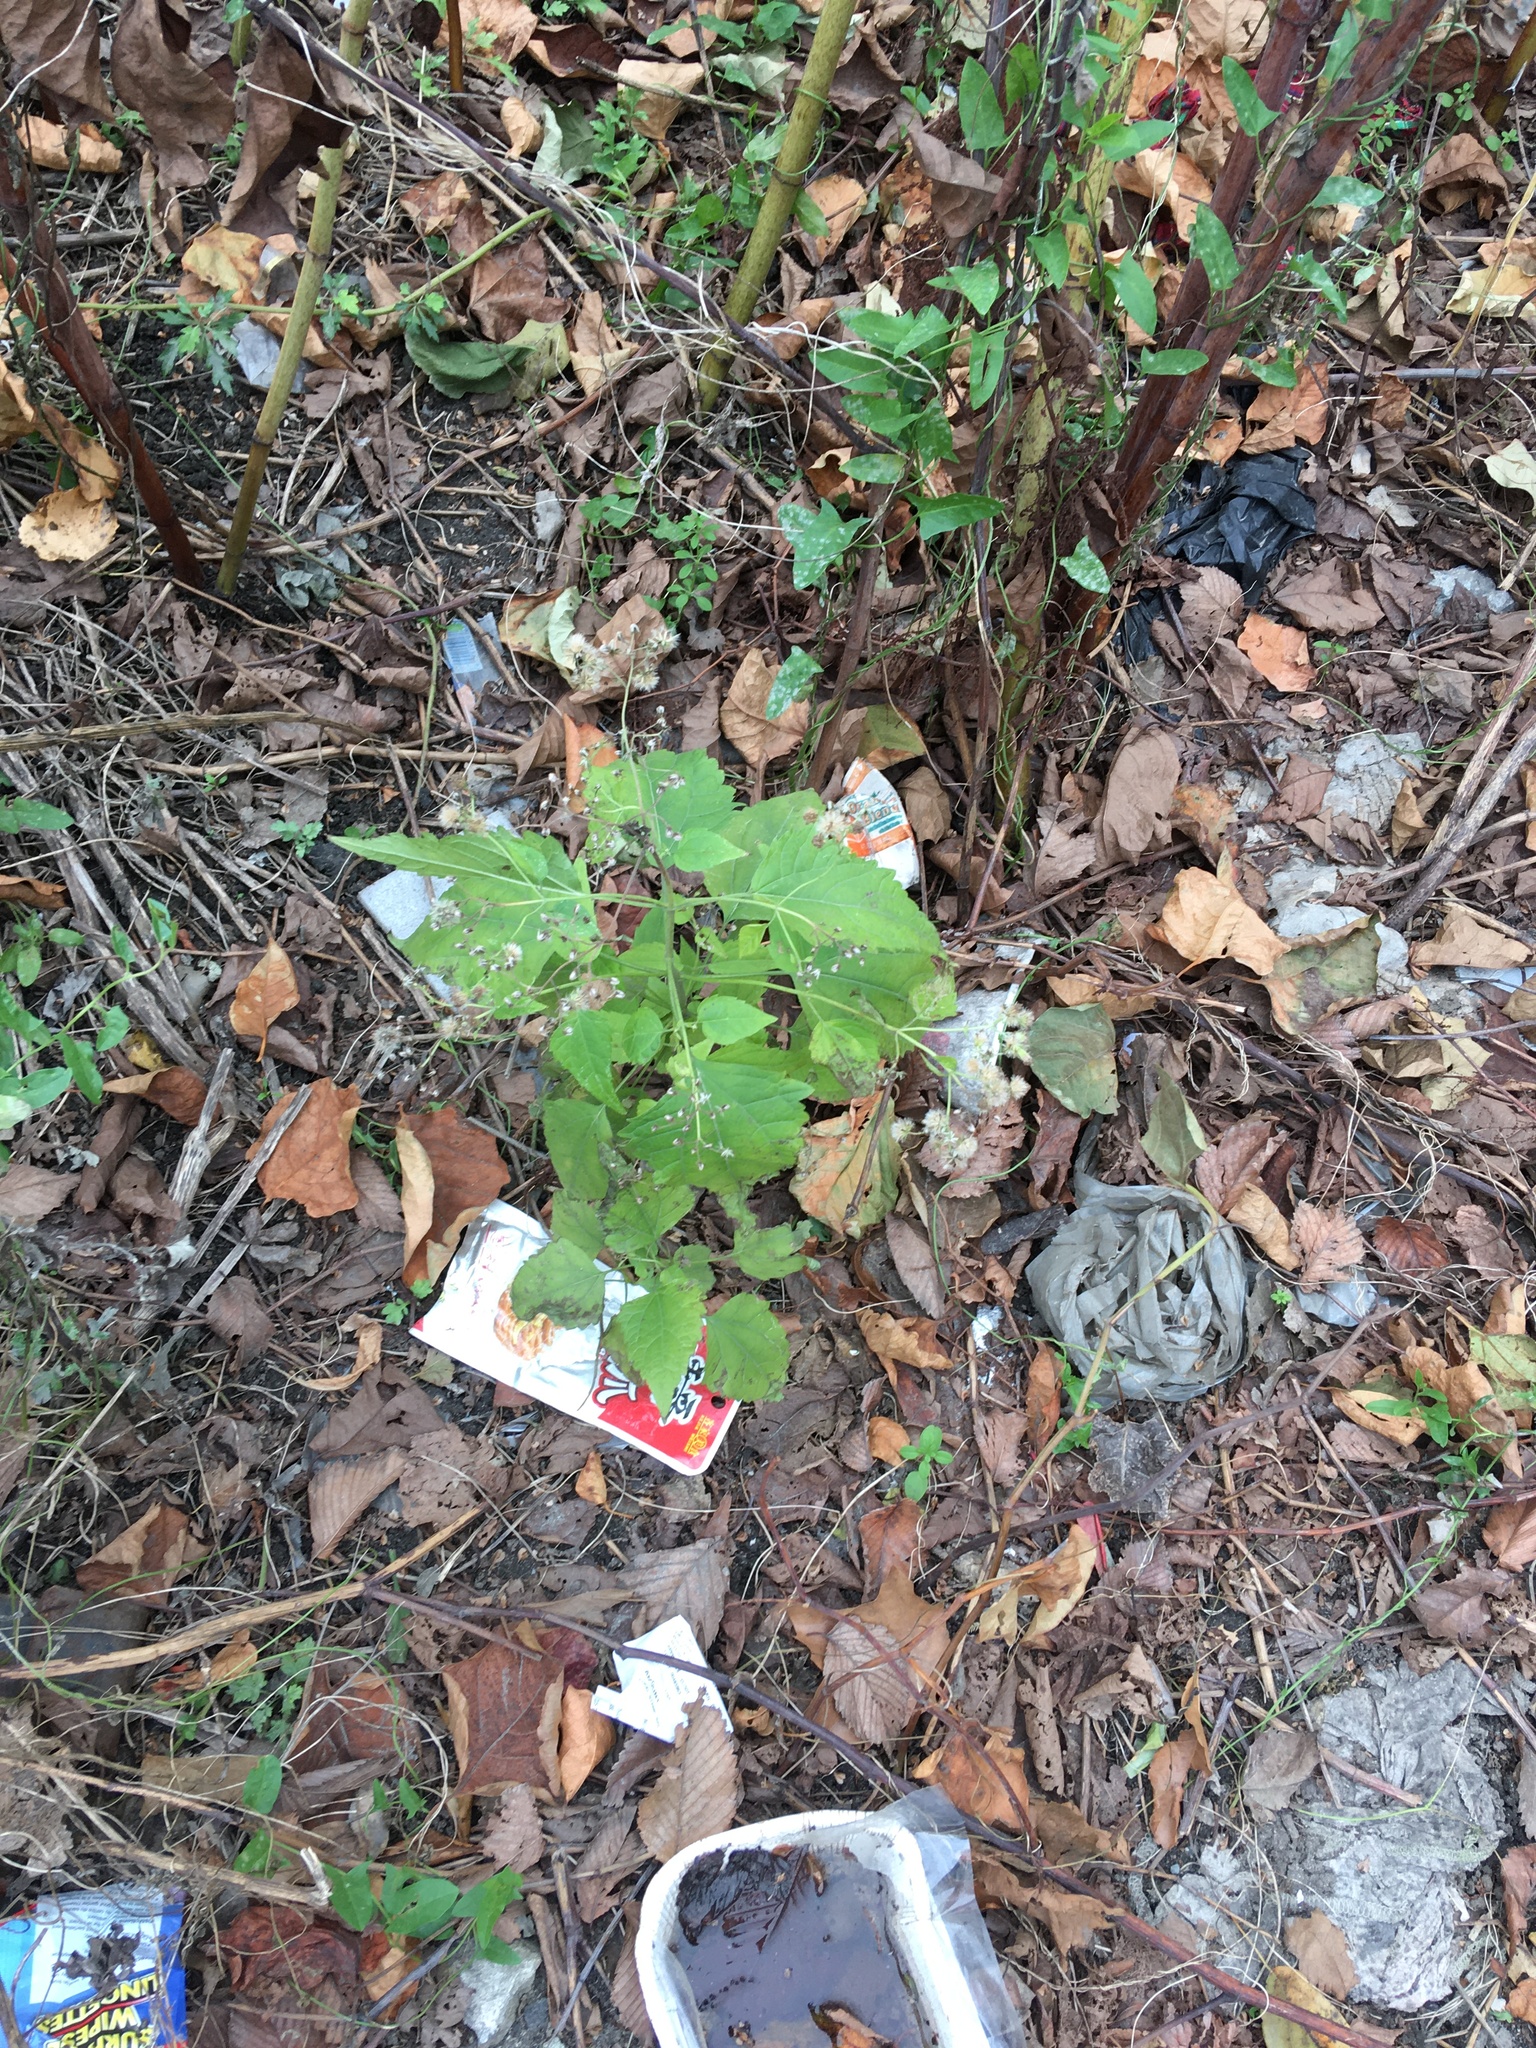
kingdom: Plantae
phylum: Tracheophyta
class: Magnoliopsida
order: Asterales
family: Asteraceae
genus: Ageratina
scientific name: Ageratina altissima
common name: White snakeroot
